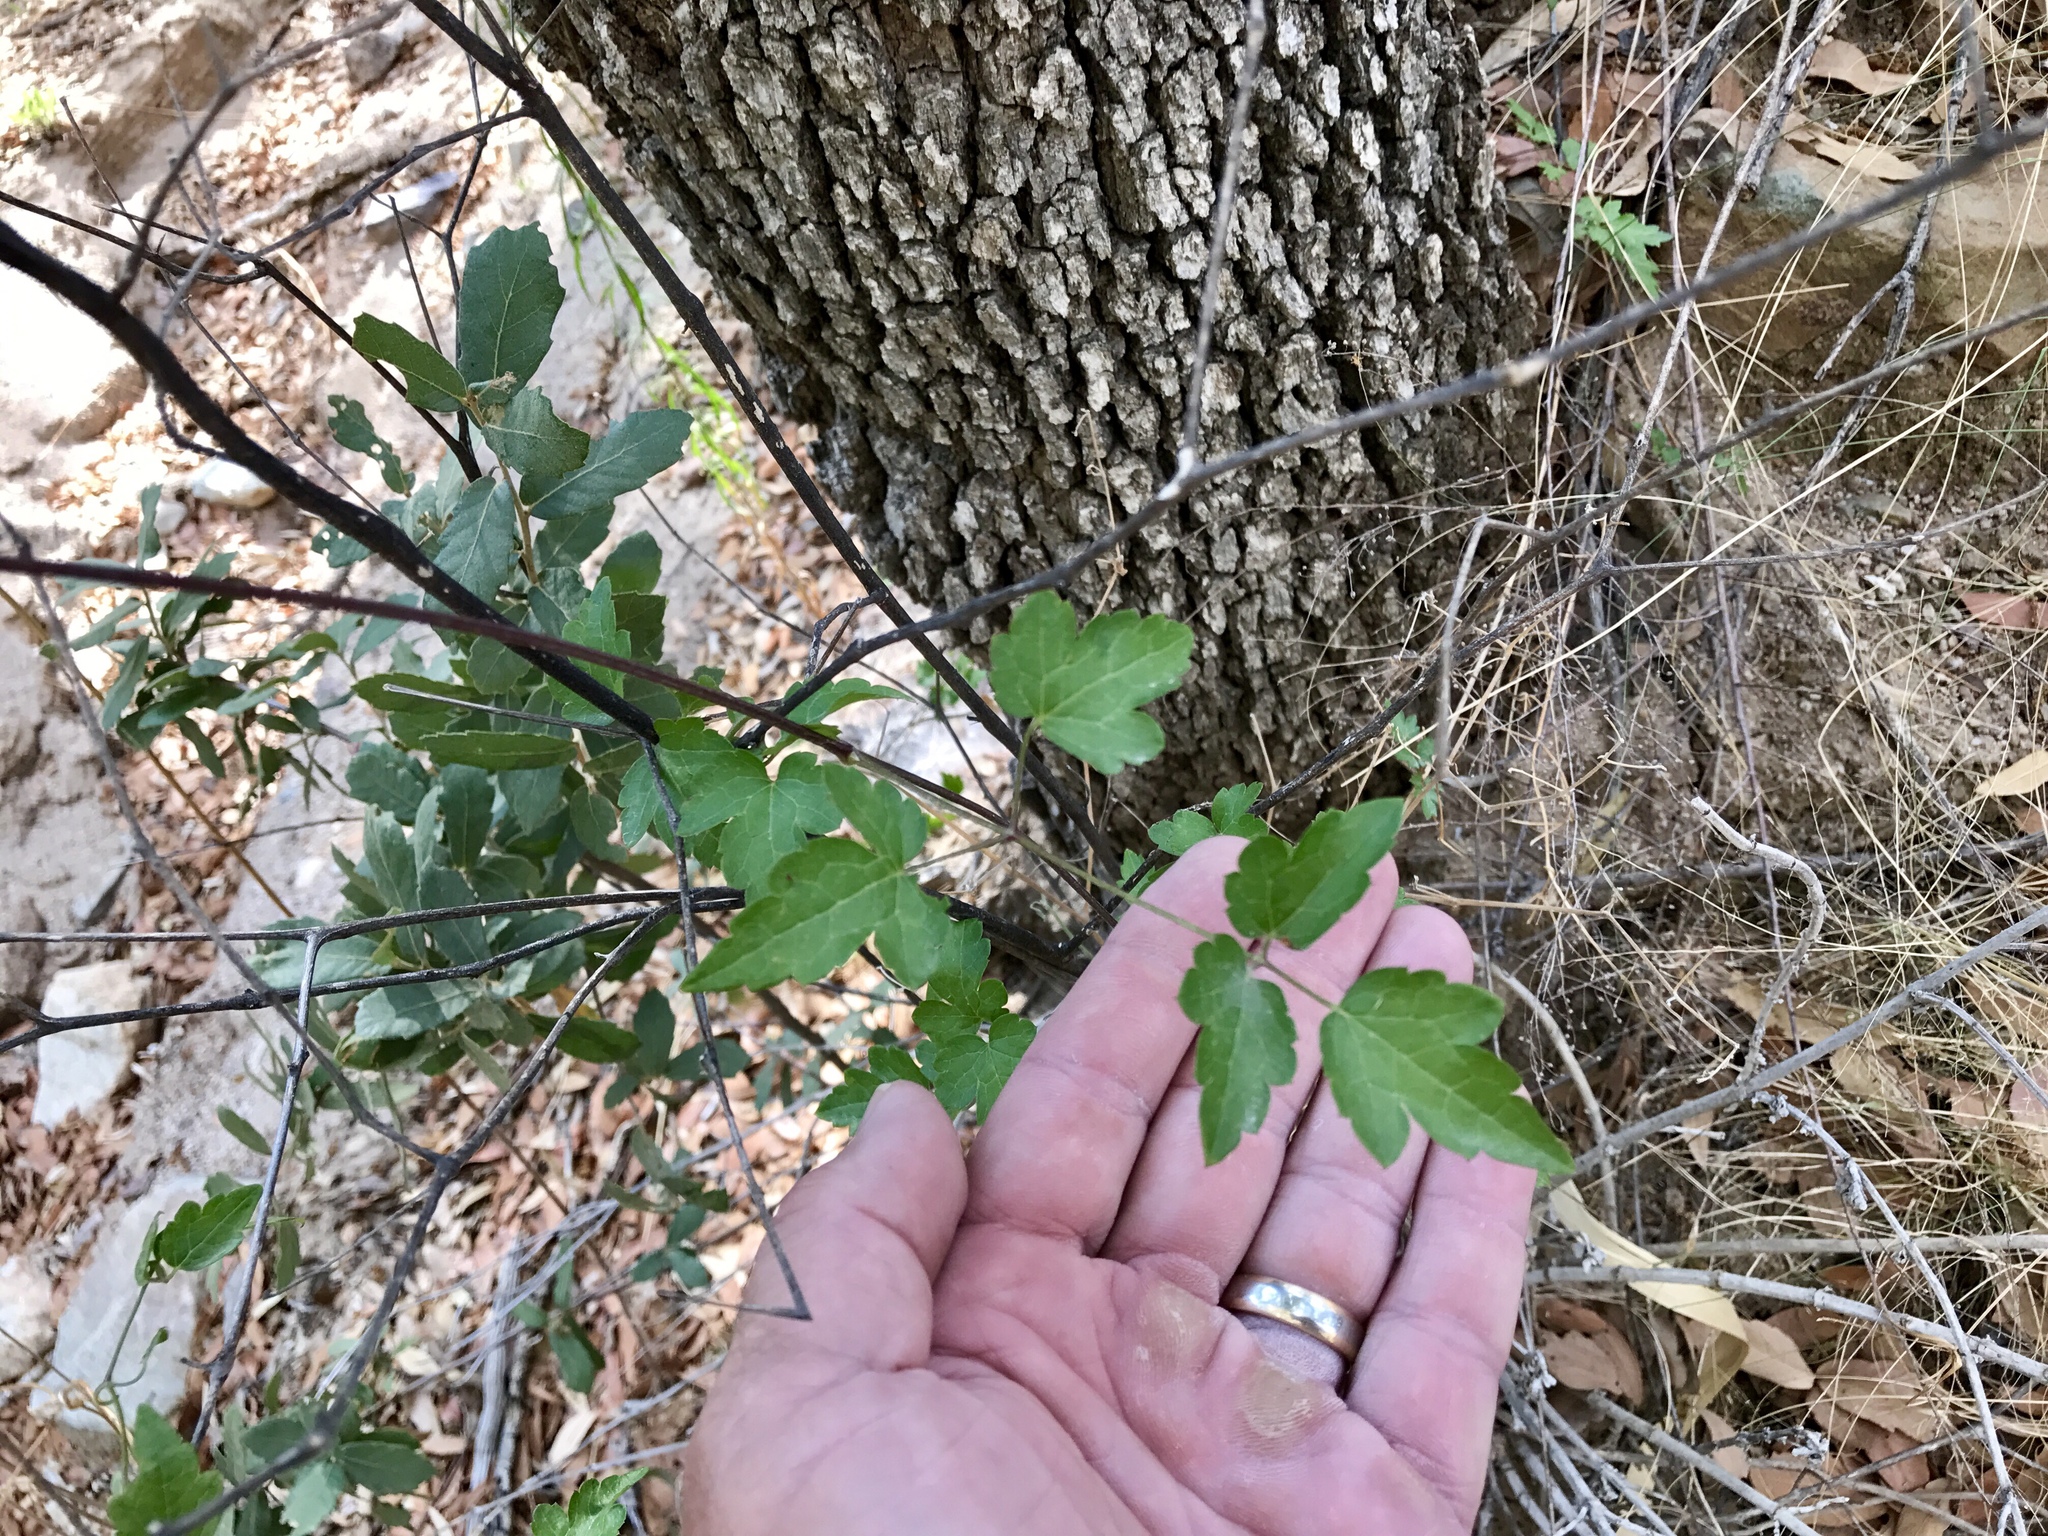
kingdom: Plantae
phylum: Tracheophyta
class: Magnoliopsida
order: Ranunculales
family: Ranunculaceae
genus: Clematis
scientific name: Clematis drummondii
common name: Texas virgin's bower
